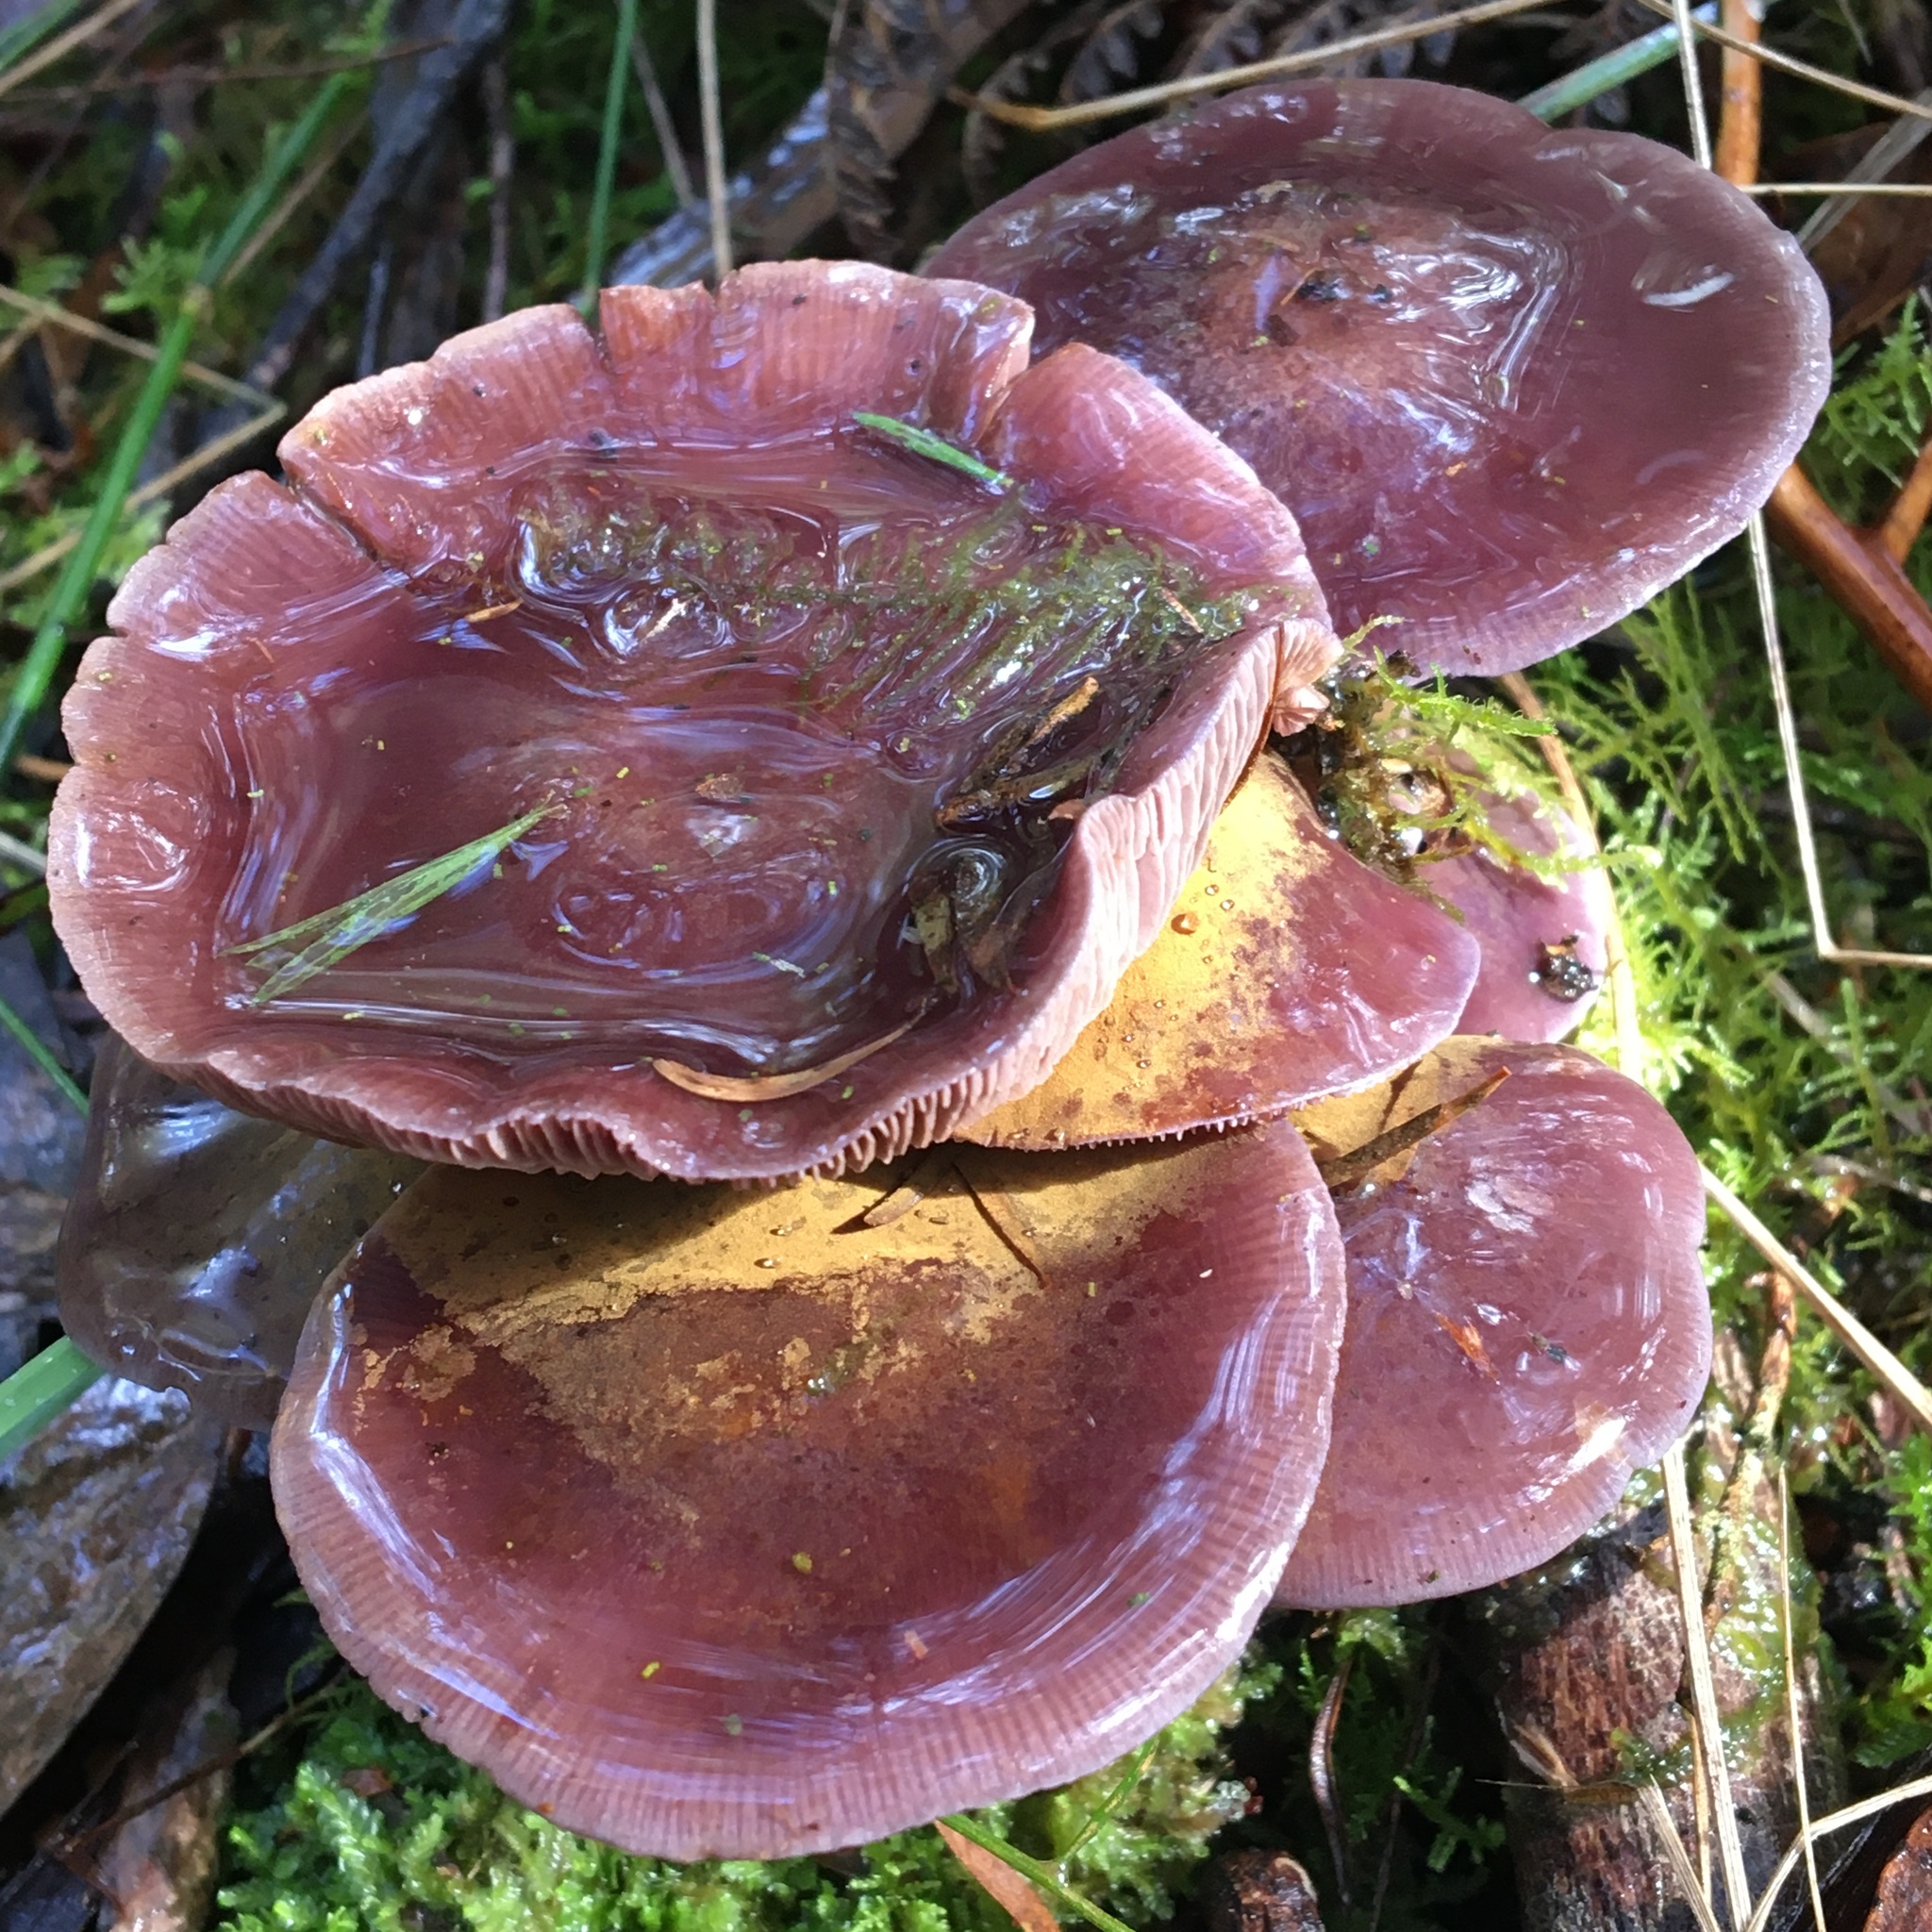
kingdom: Fungi
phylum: Basidiomycota
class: Agaricomycetes
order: Agaricales
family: Cortinariaceae
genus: Thaxterogaster
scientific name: Thaxterogaster submagellanicus
